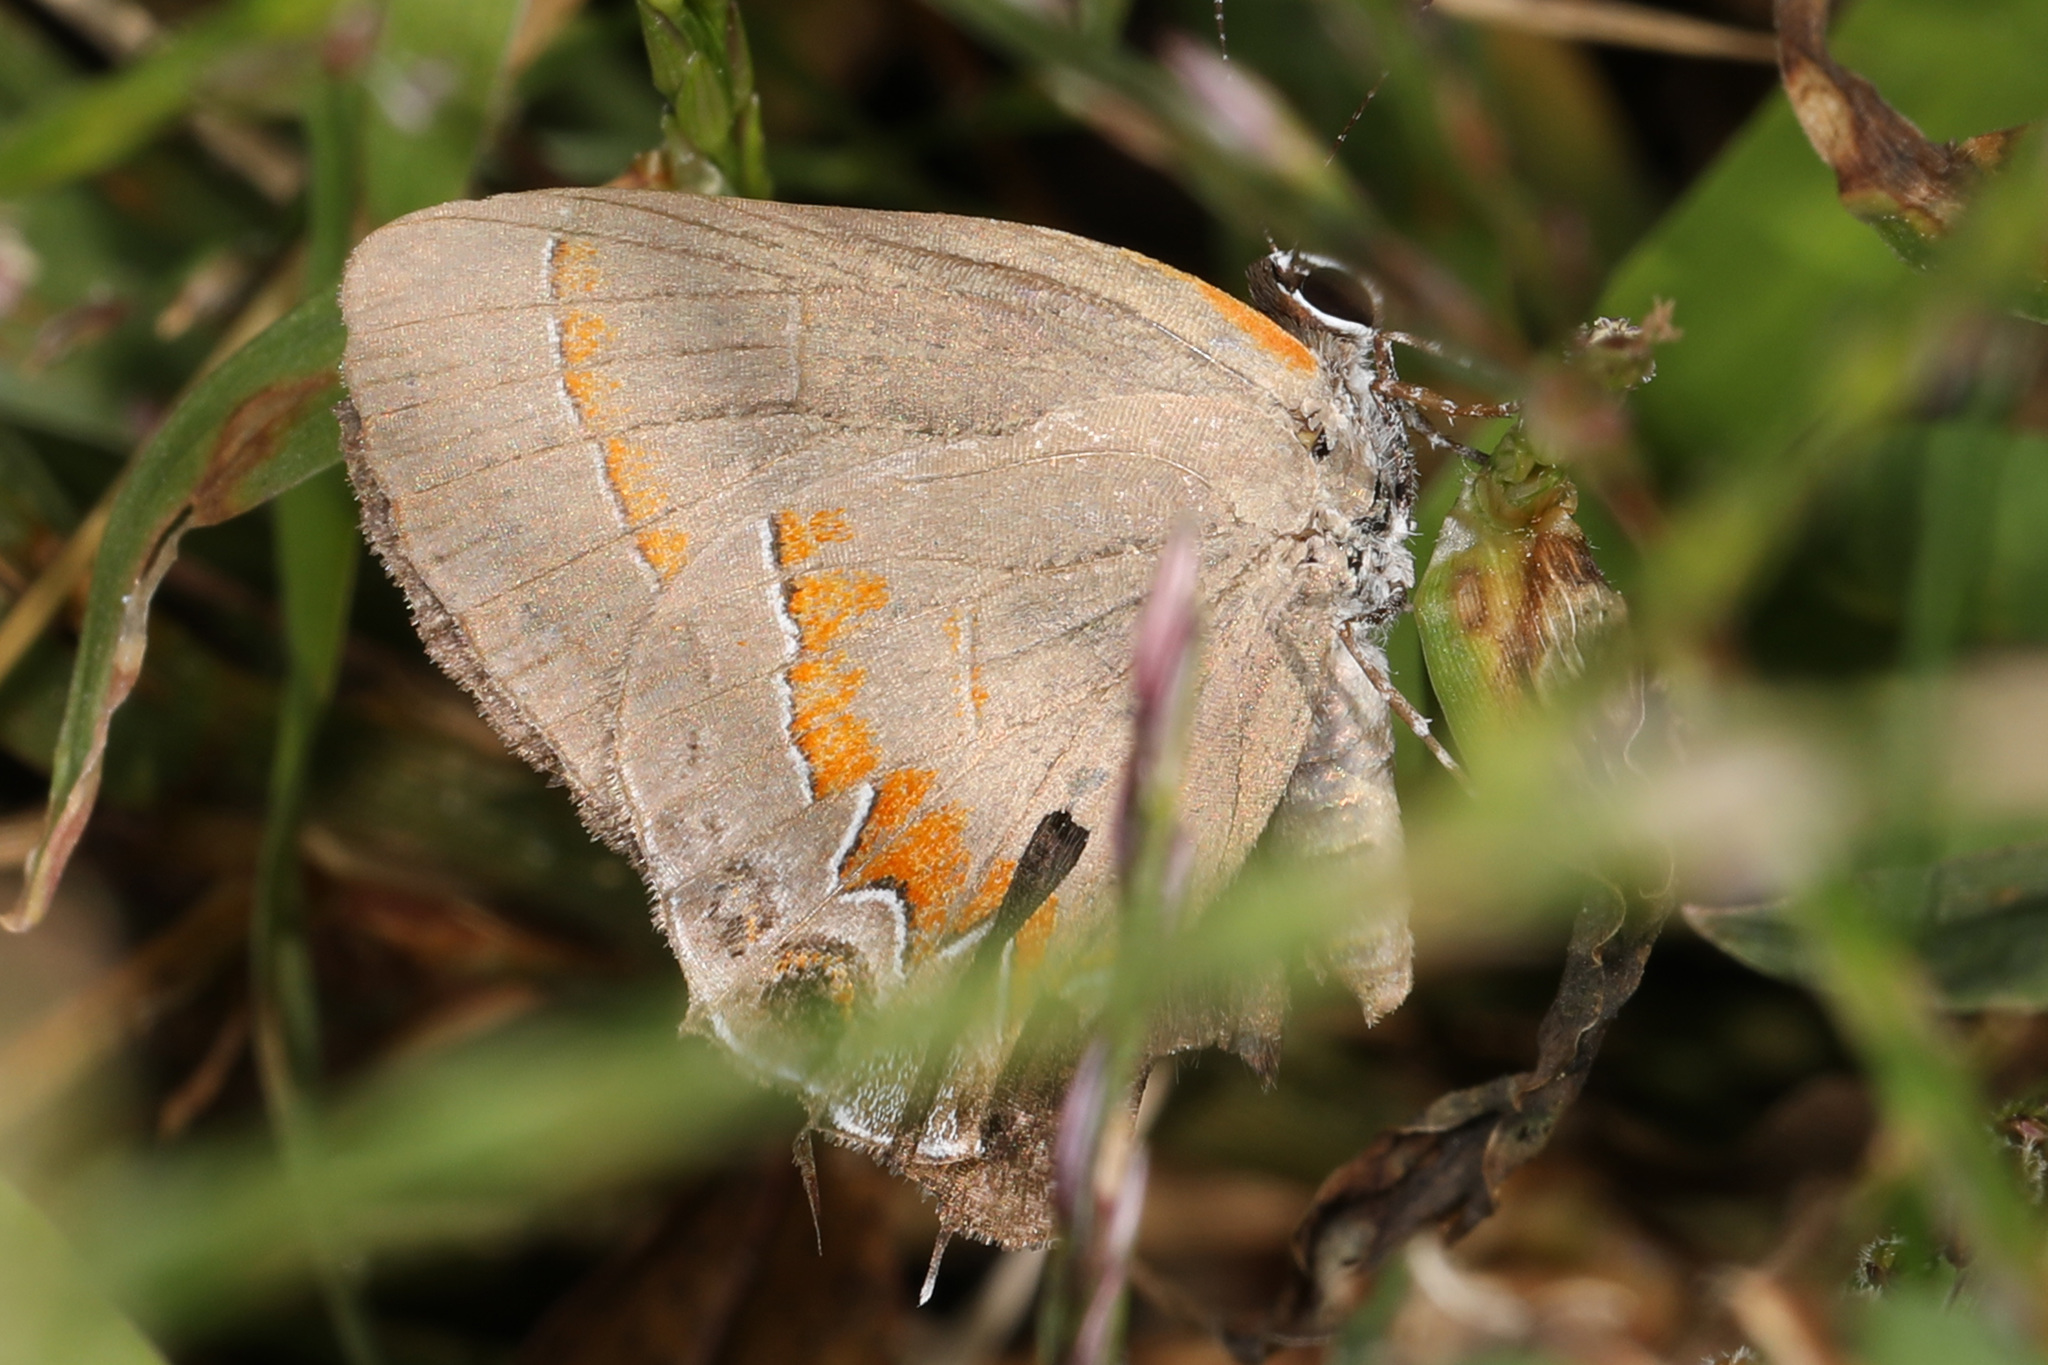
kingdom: Animalia
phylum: Arthropoda
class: Insecta
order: Lepidoptera
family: Lycaenidae
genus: Calycopis
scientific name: Calycopis cecrops
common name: Red-banded hairstreak
